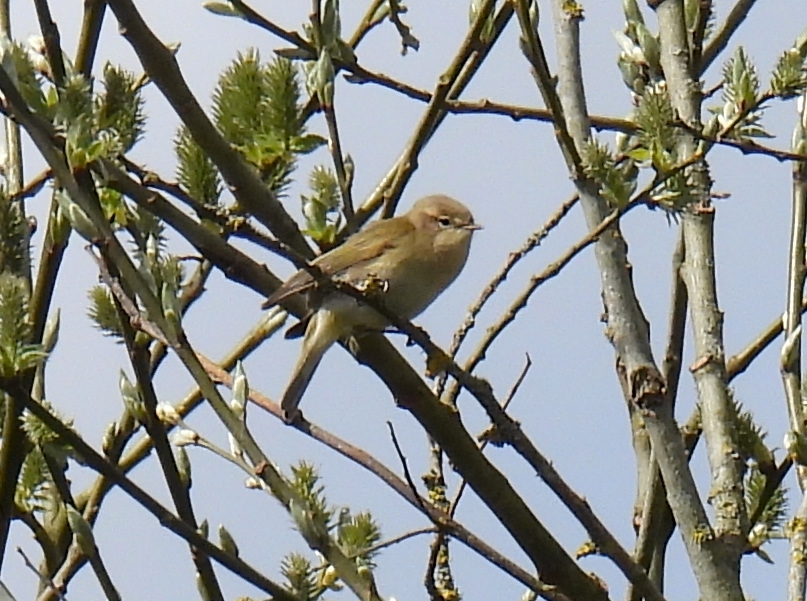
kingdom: Animalia
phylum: Chordata
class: Aves
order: Passeriformes
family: Phylloscopidae
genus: Phylloscopus
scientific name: Phylloscopus collybita
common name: Common chiffchaff
